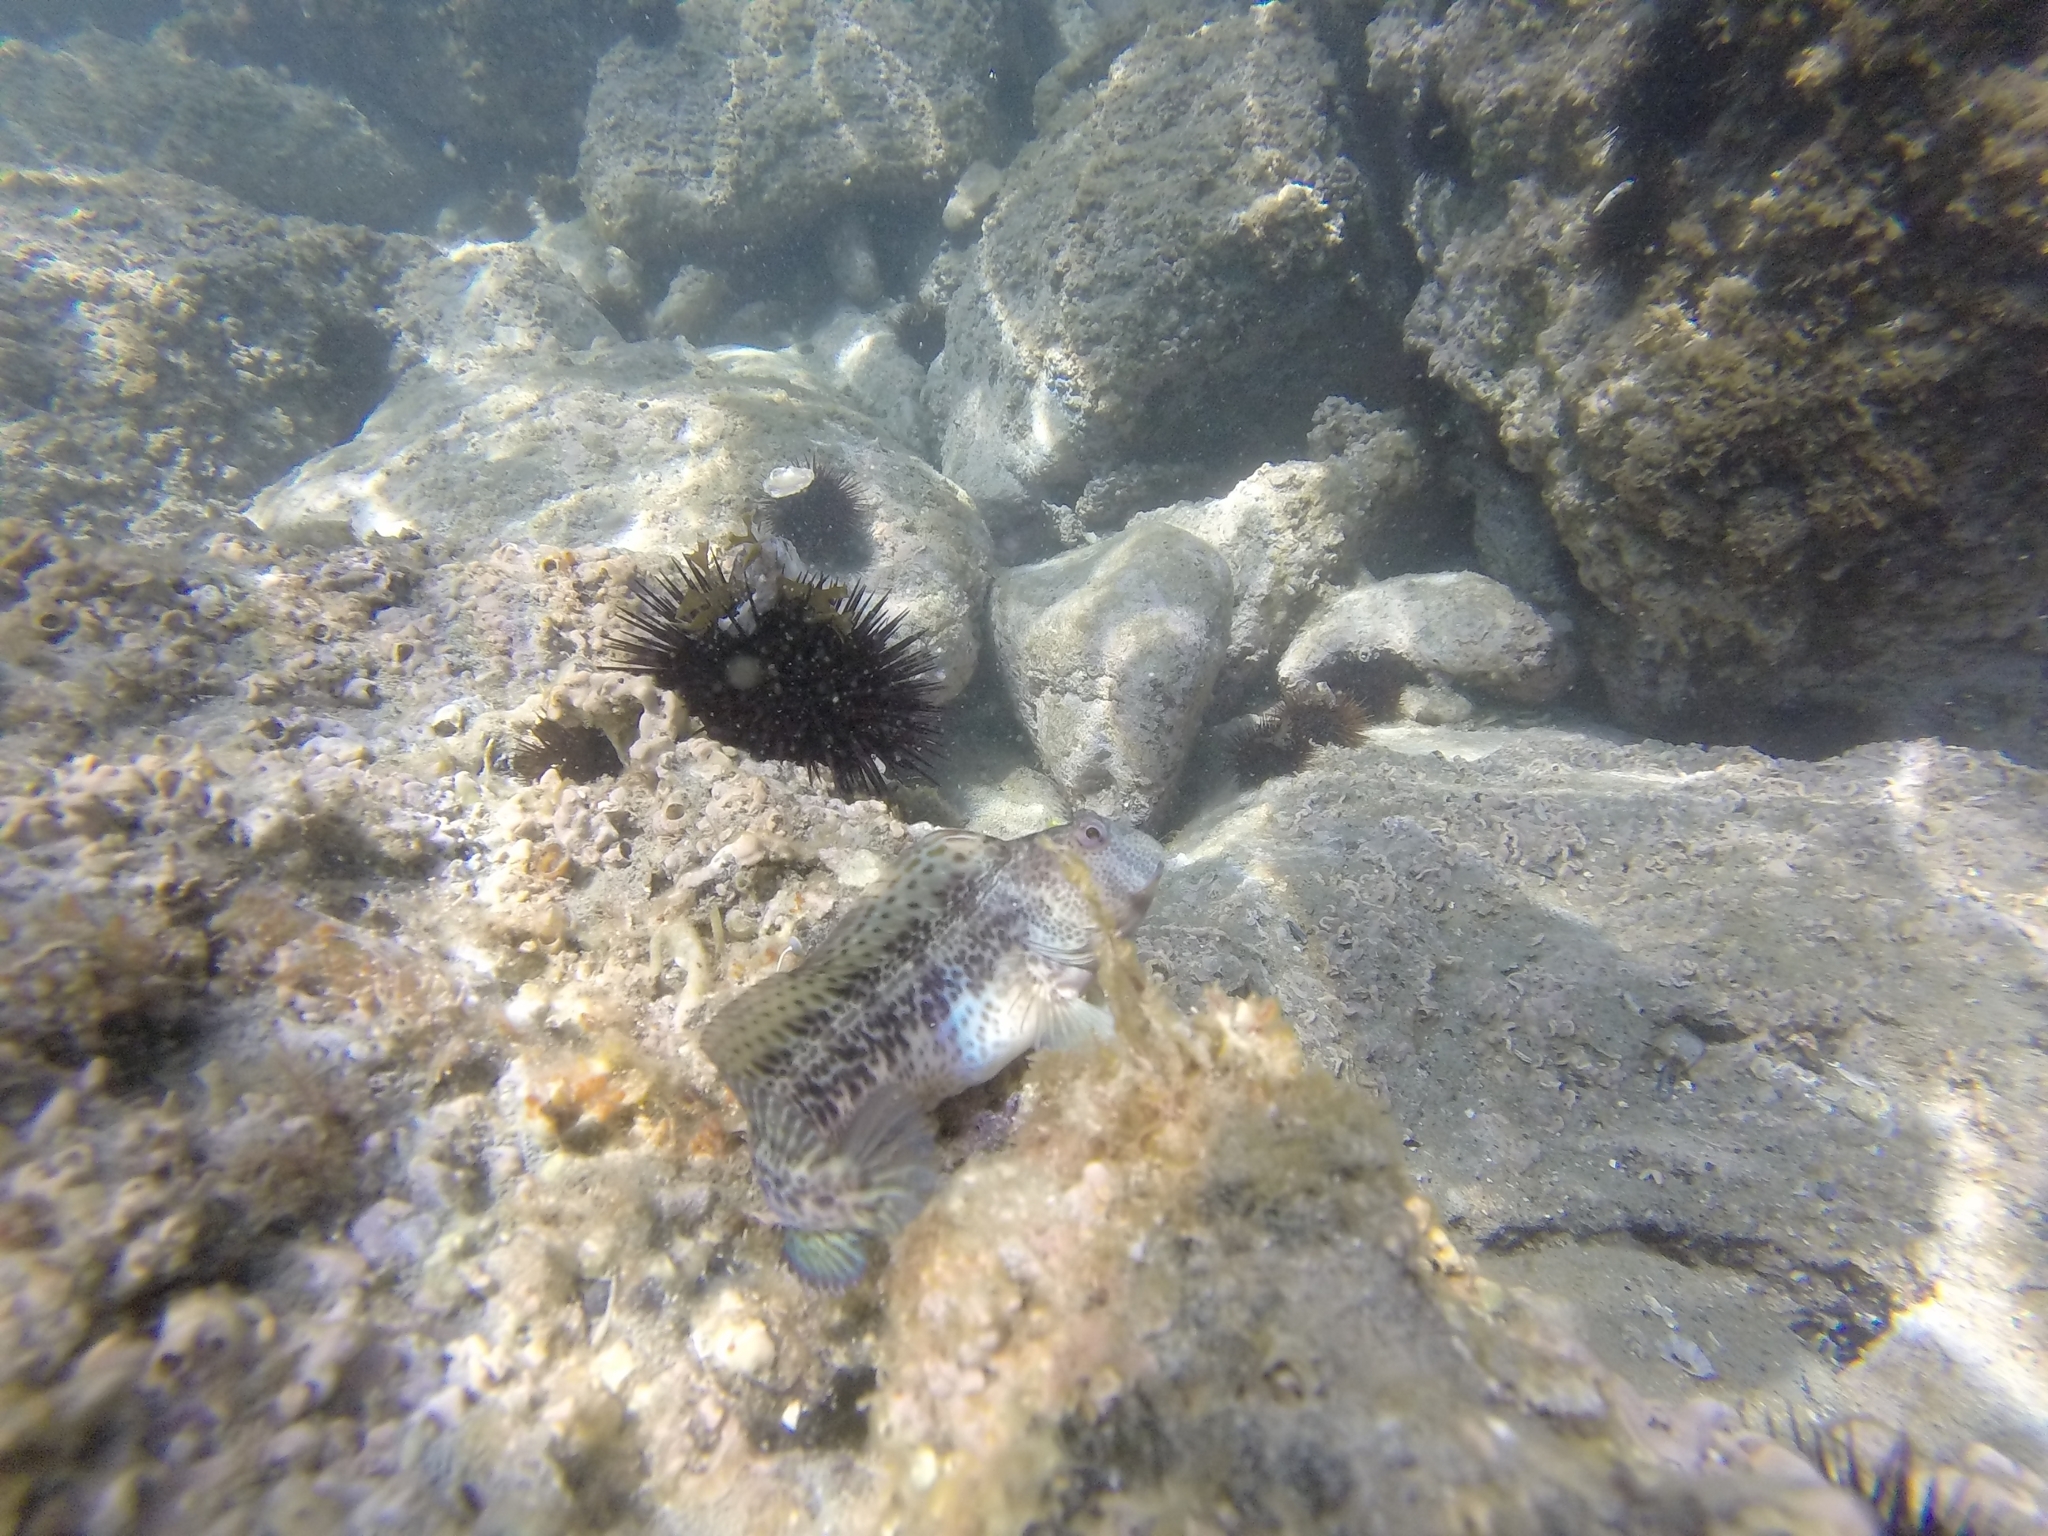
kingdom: Animalia
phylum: Chordata
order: Perciformes
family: Blenniidae
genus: Parablennius
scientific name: Parablennius pilicornis
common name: Ringneck blenny
